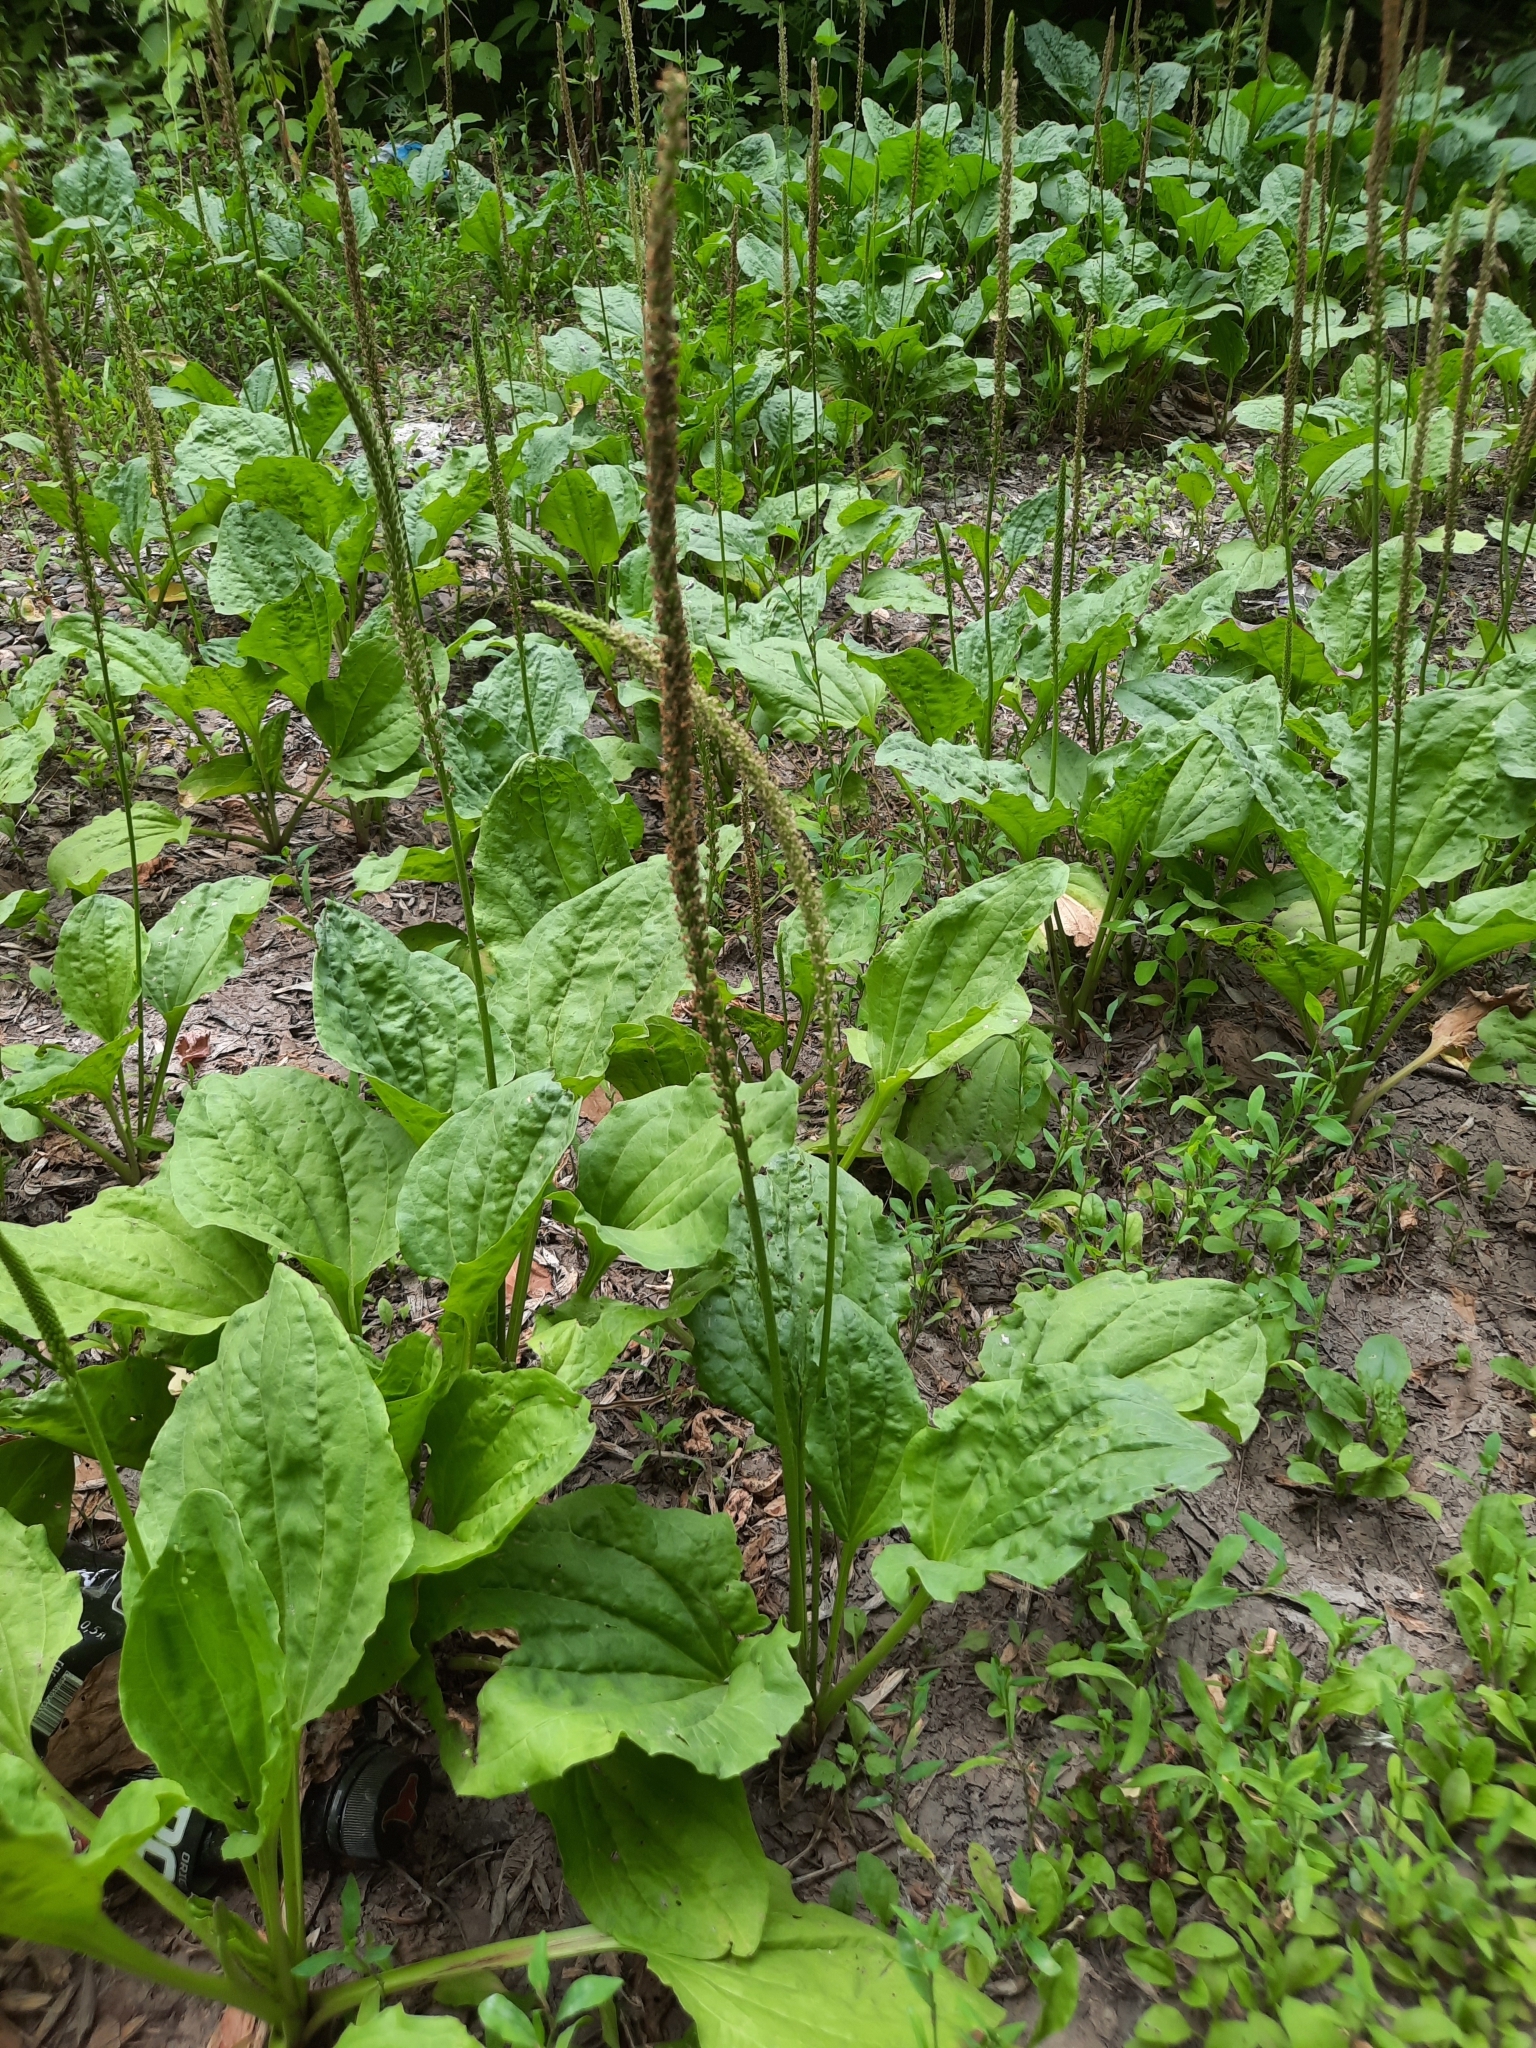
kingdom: Plantae
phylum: Tracheophyta
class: Magnoliopsida
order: Lamiales
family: Plantaginaceae
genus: Plantago
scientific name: Plantago major
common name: Common plantain
